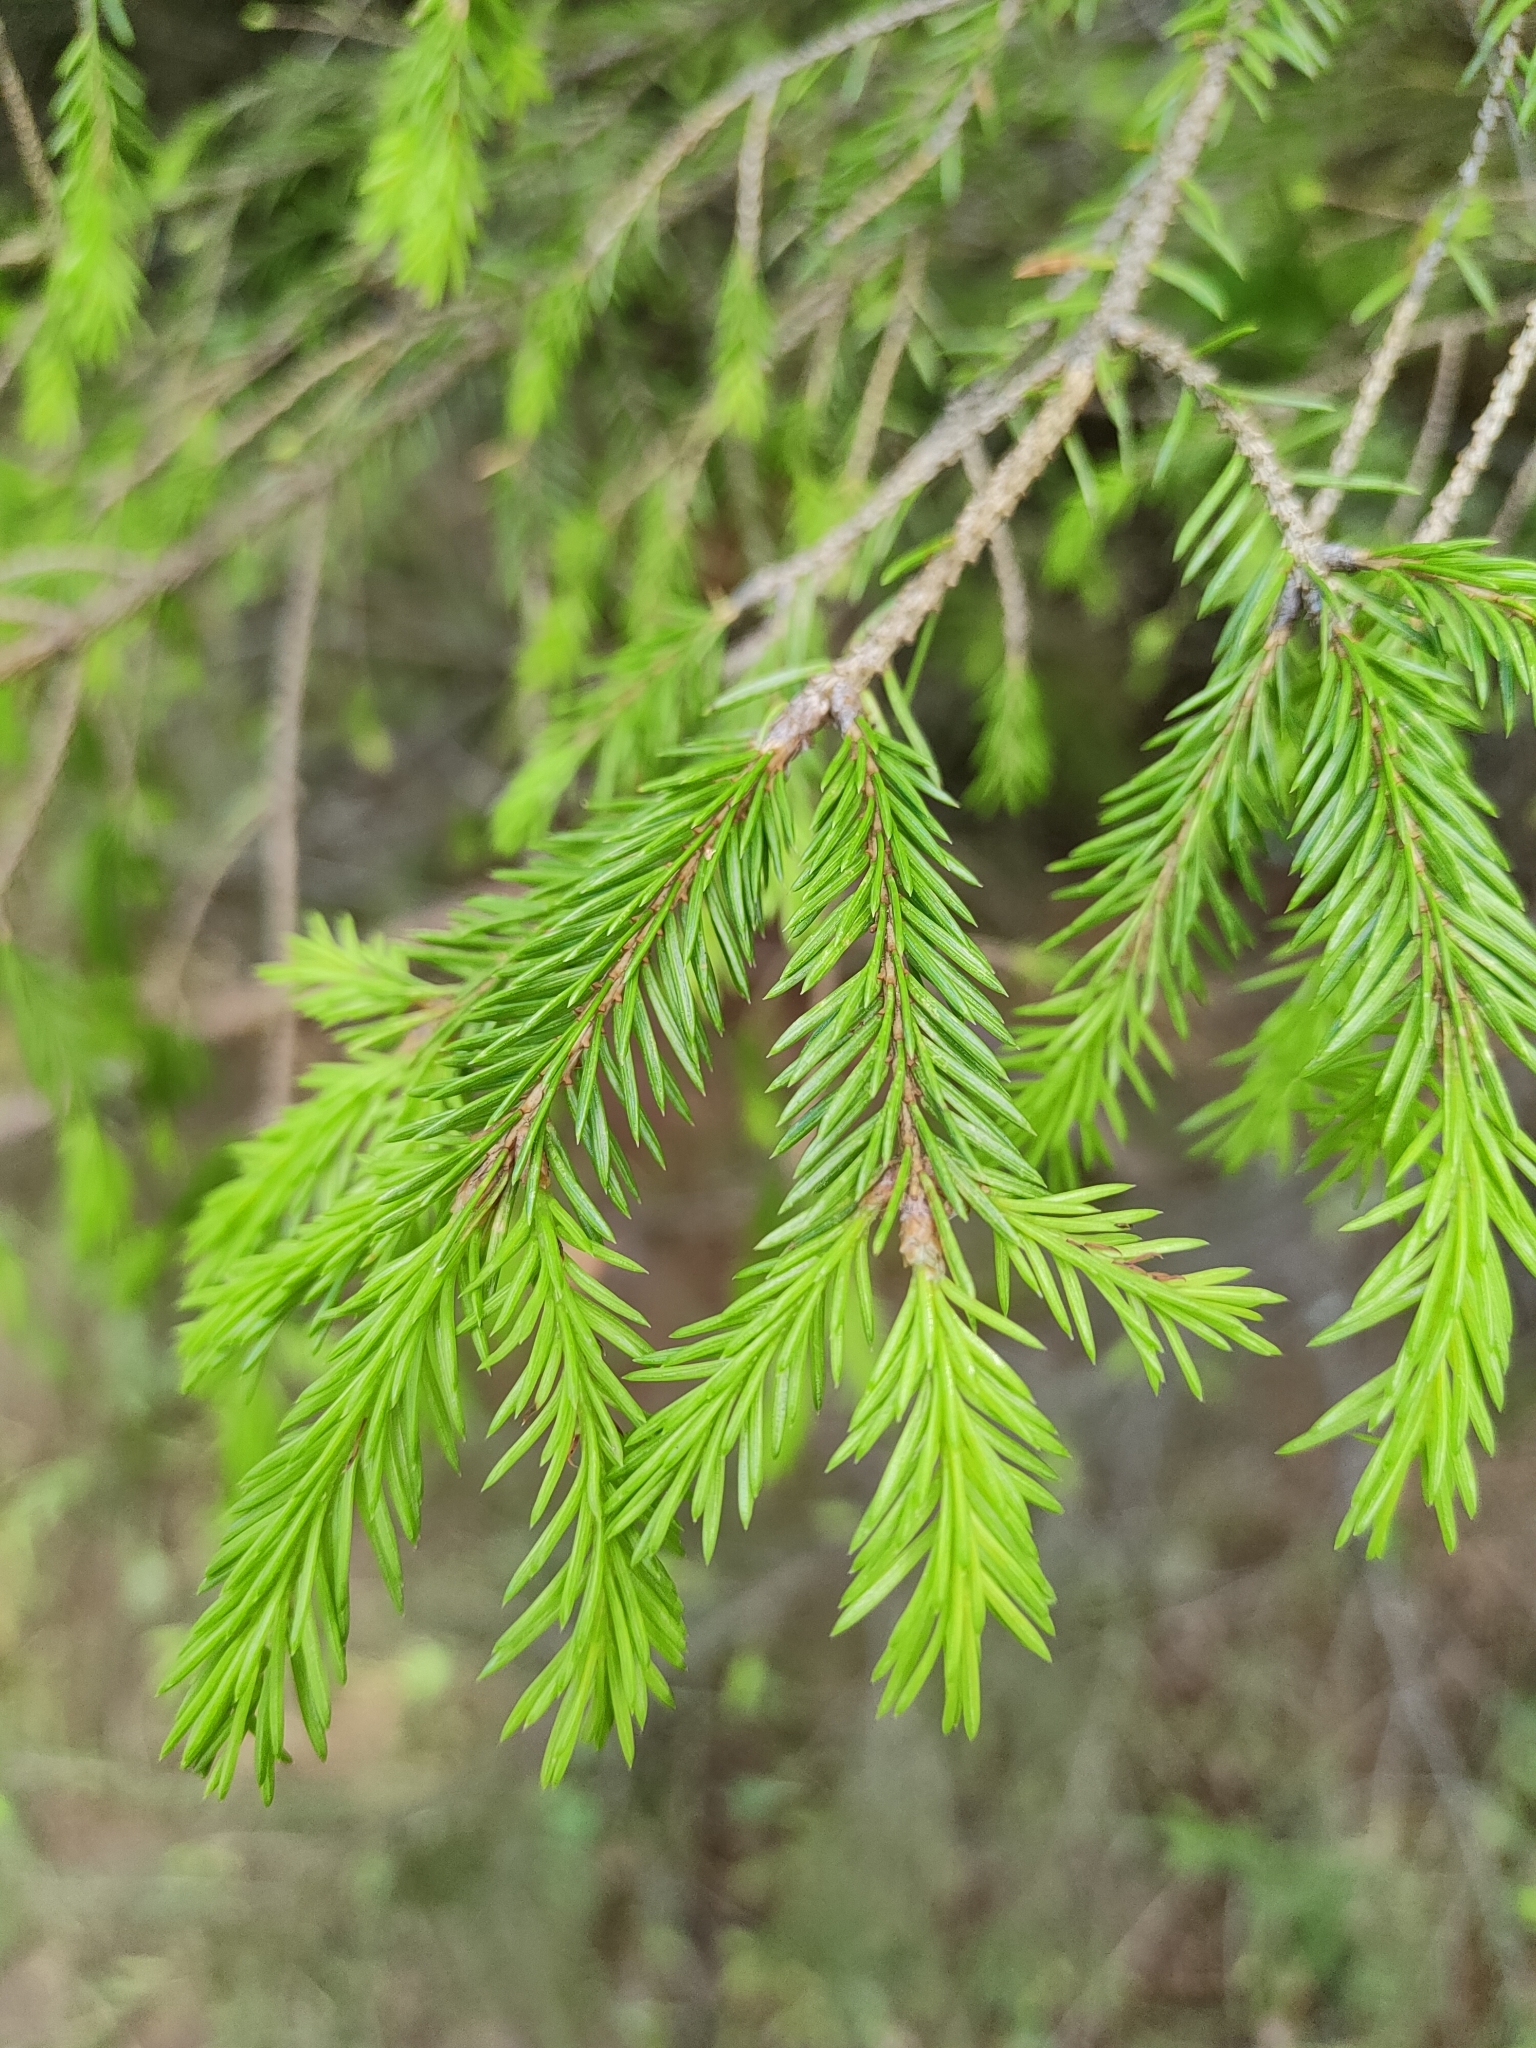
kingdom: Plantae
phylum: Tracheophyta
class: Pinopsida
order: Pinales
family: Pinaceae
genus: Picea
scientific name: Picea obovata
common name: Siberian spruce
